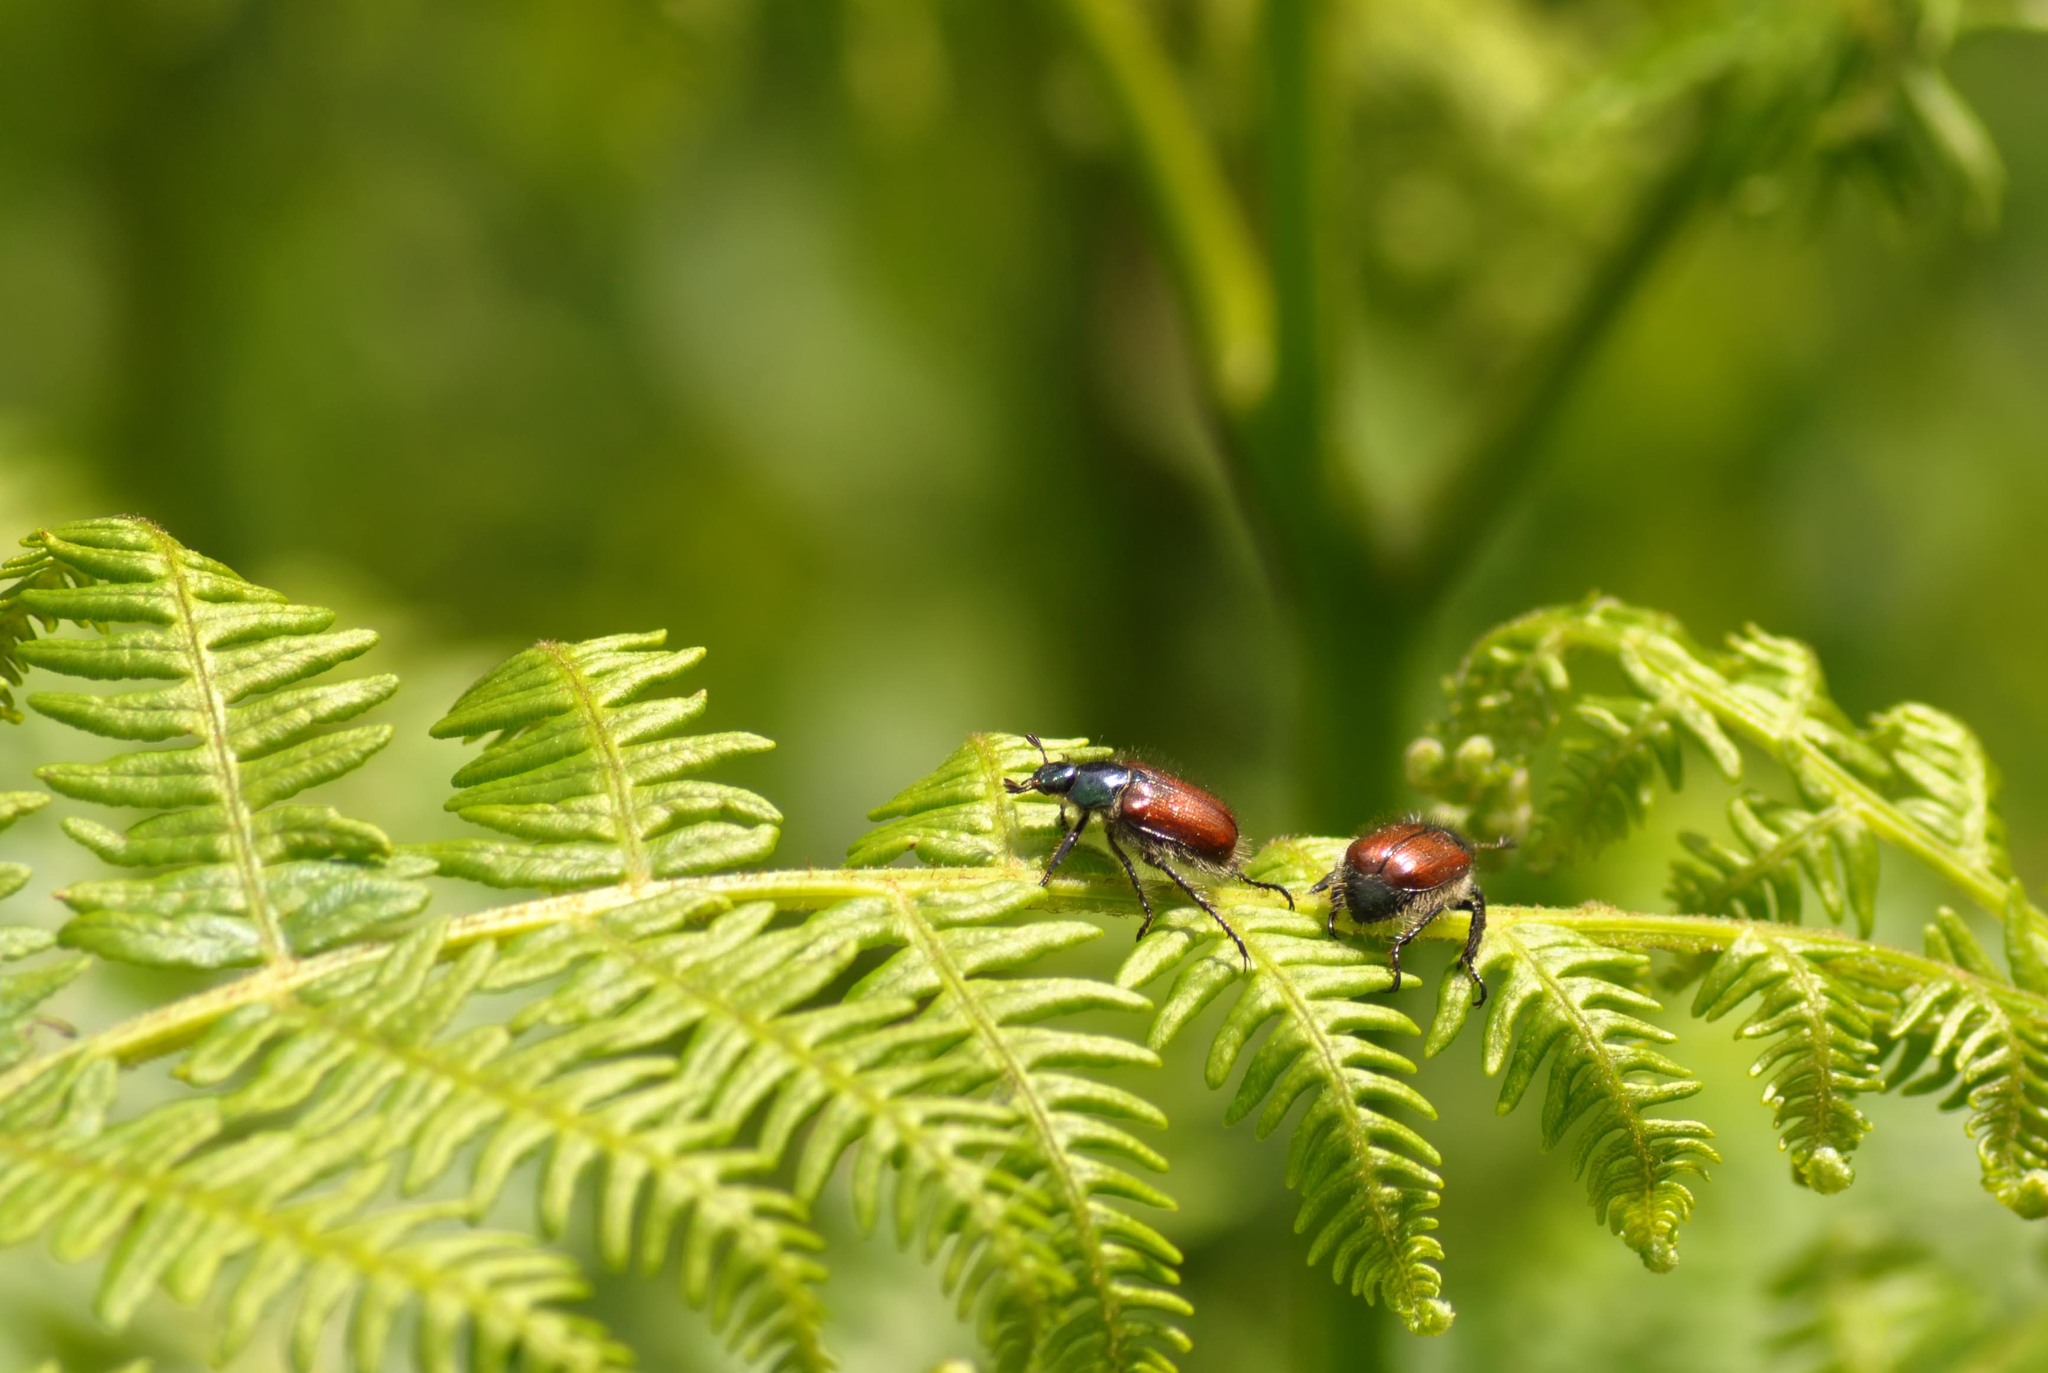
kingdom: Animalia
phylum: Arthropoda
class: Insecta
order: Coleoptera
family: Scarabaeidae
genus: Phyllopertha
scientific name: Phyllopertha horticola
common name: Garden chafer
